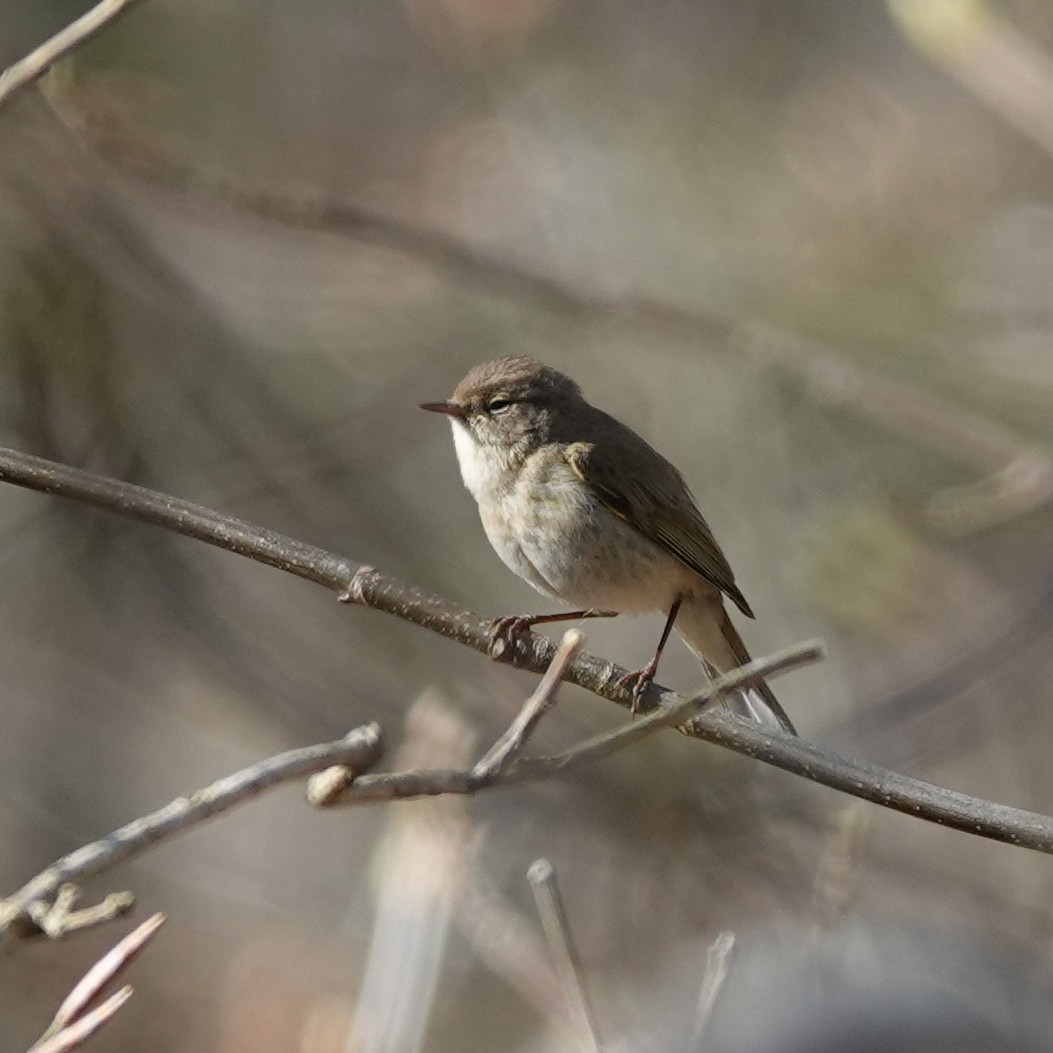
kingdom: Animalia
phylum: Chordata
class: Aves
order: Passeriformes
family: Phylloscopidae
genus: Phylloscopus
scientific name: Phylloscopus collybita
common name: Common chiffchaff
